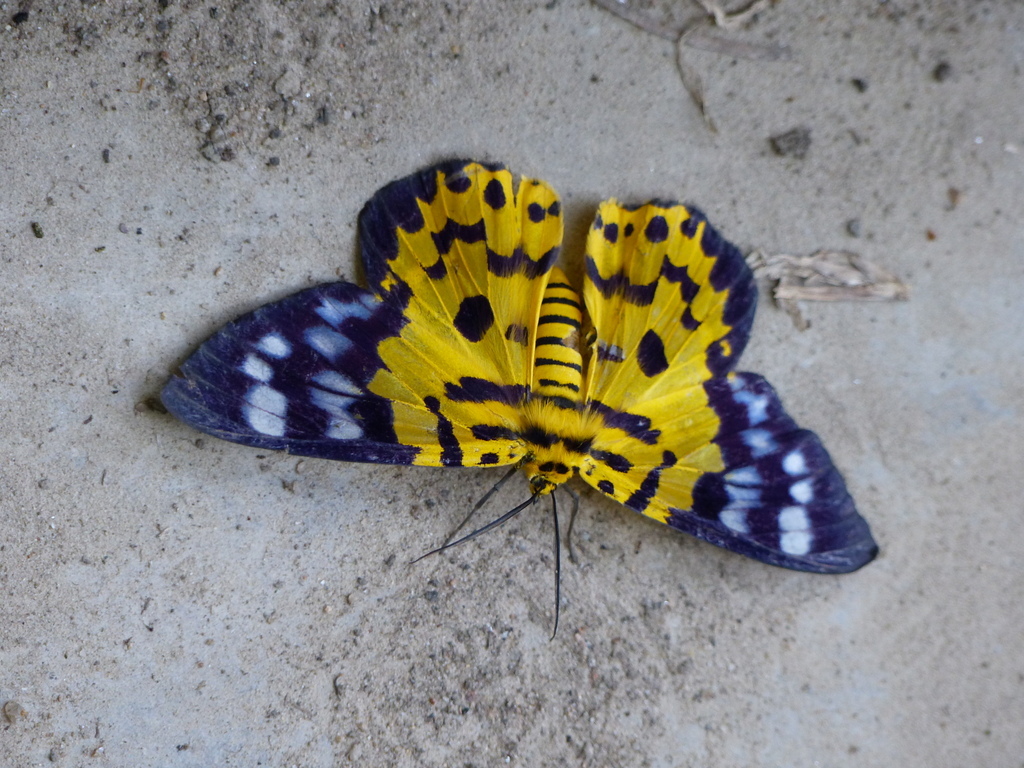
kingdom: Animalia
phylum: Arthropoda
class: Insecta
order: Lepidoptera
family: Geometridae
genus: Dysphania
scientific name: Dysphania militaris
